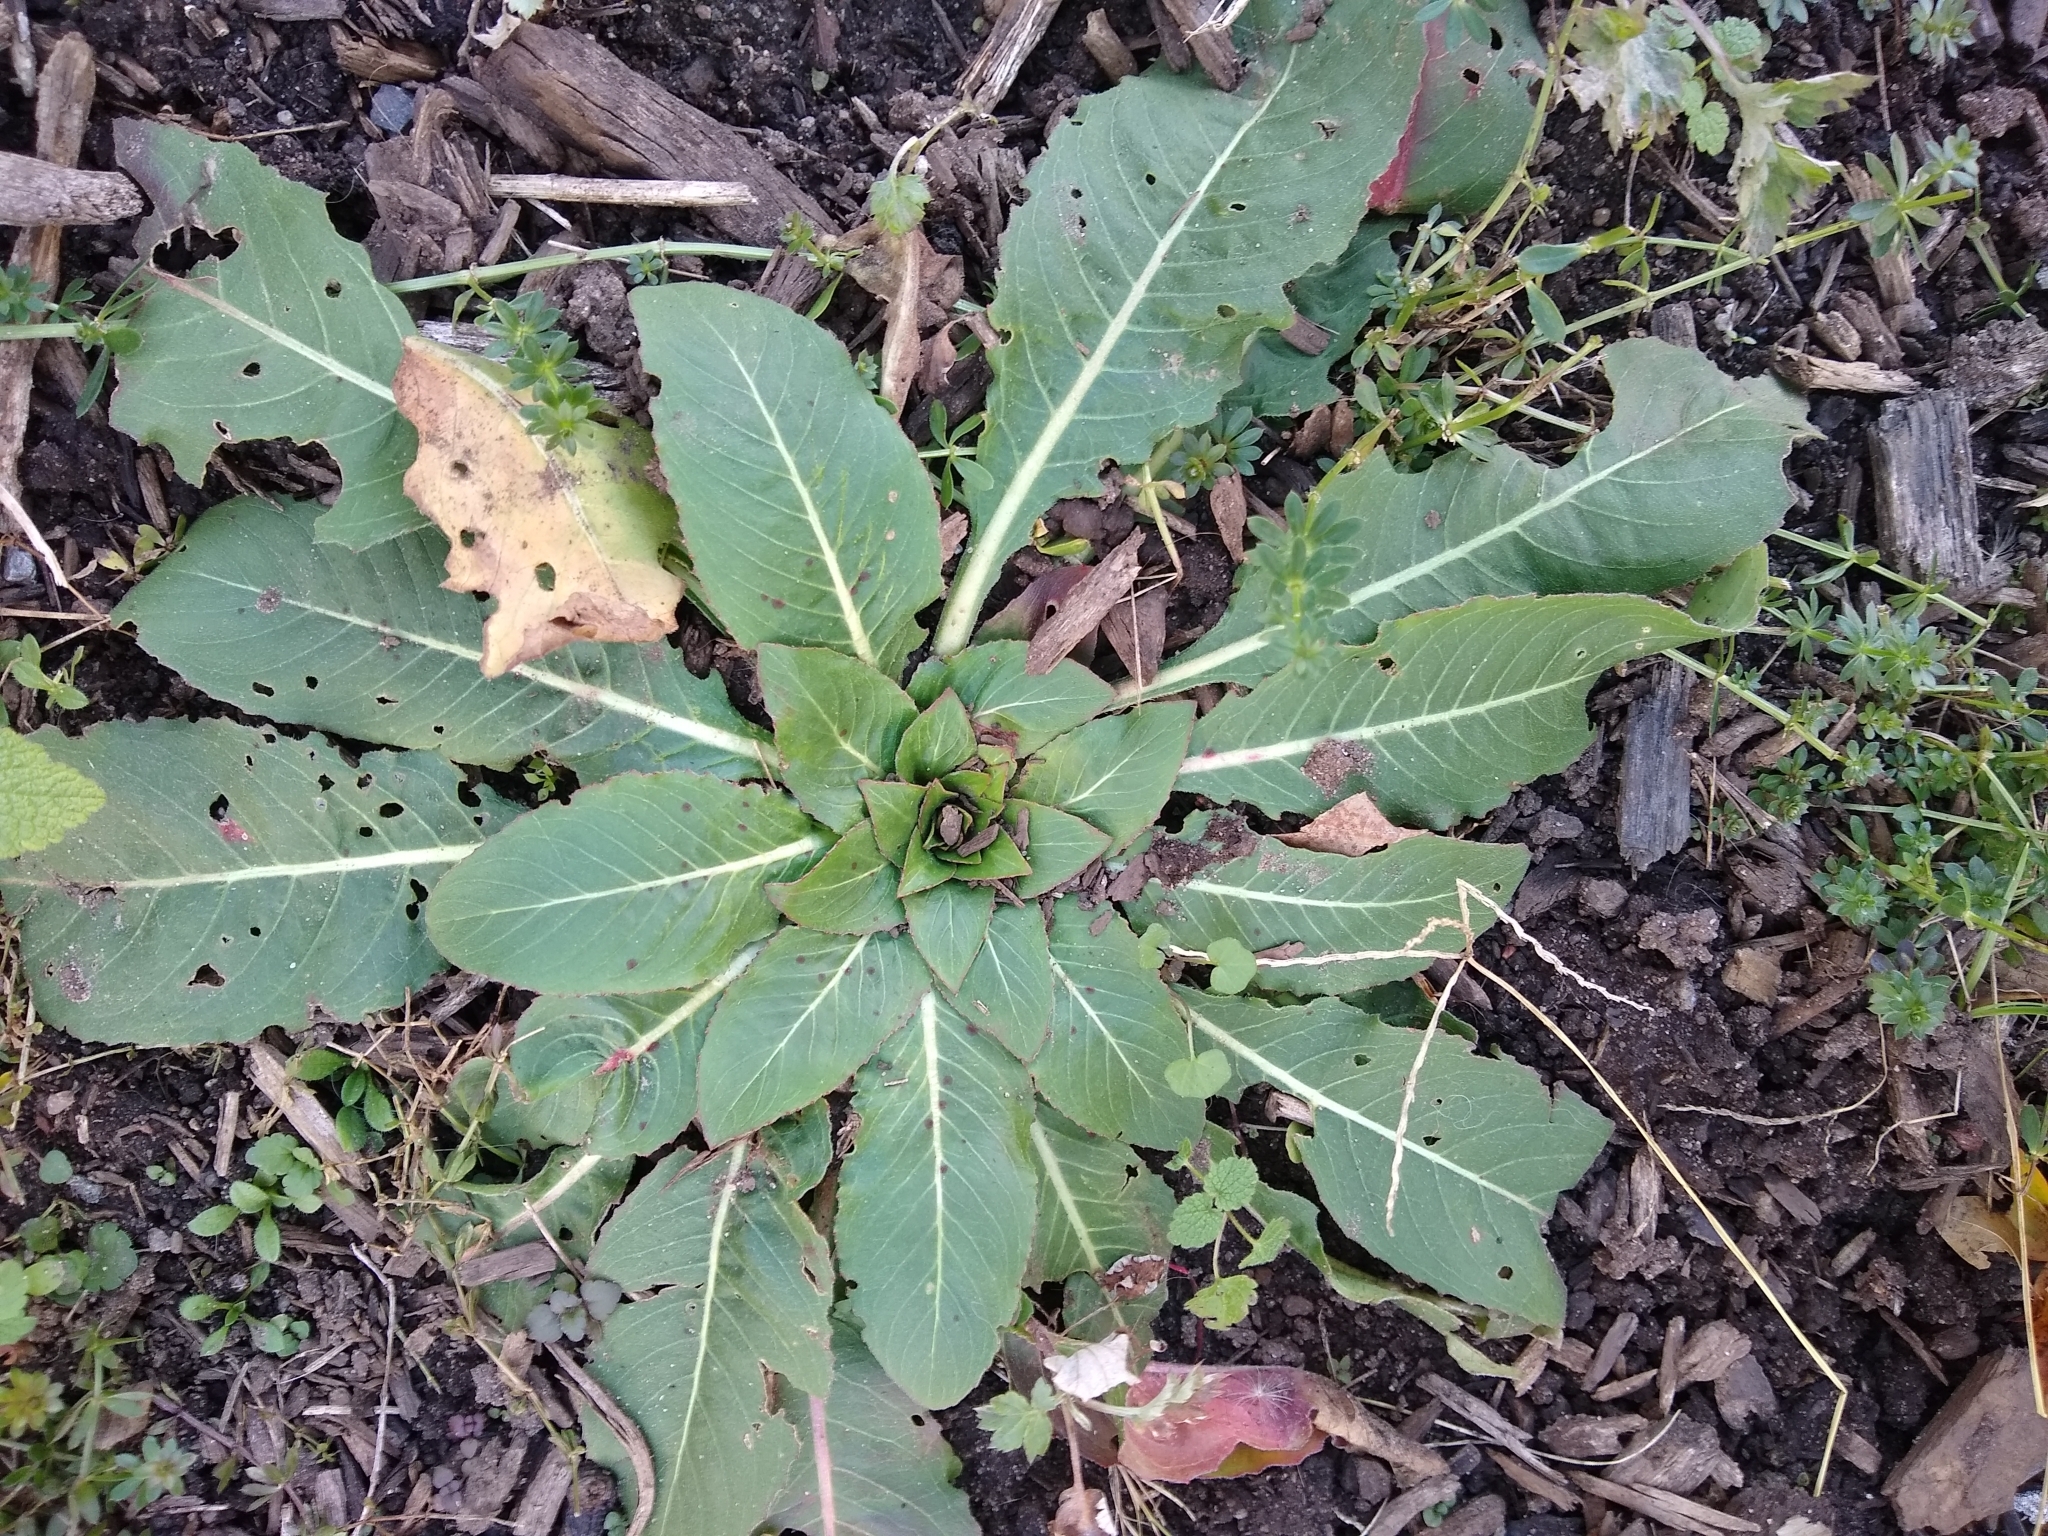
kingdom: Plantae
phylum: Tracheophyta
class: Magnoliopsida
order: Myrtales
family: Onagraceae
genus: Oenothera
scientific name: Oenothera
